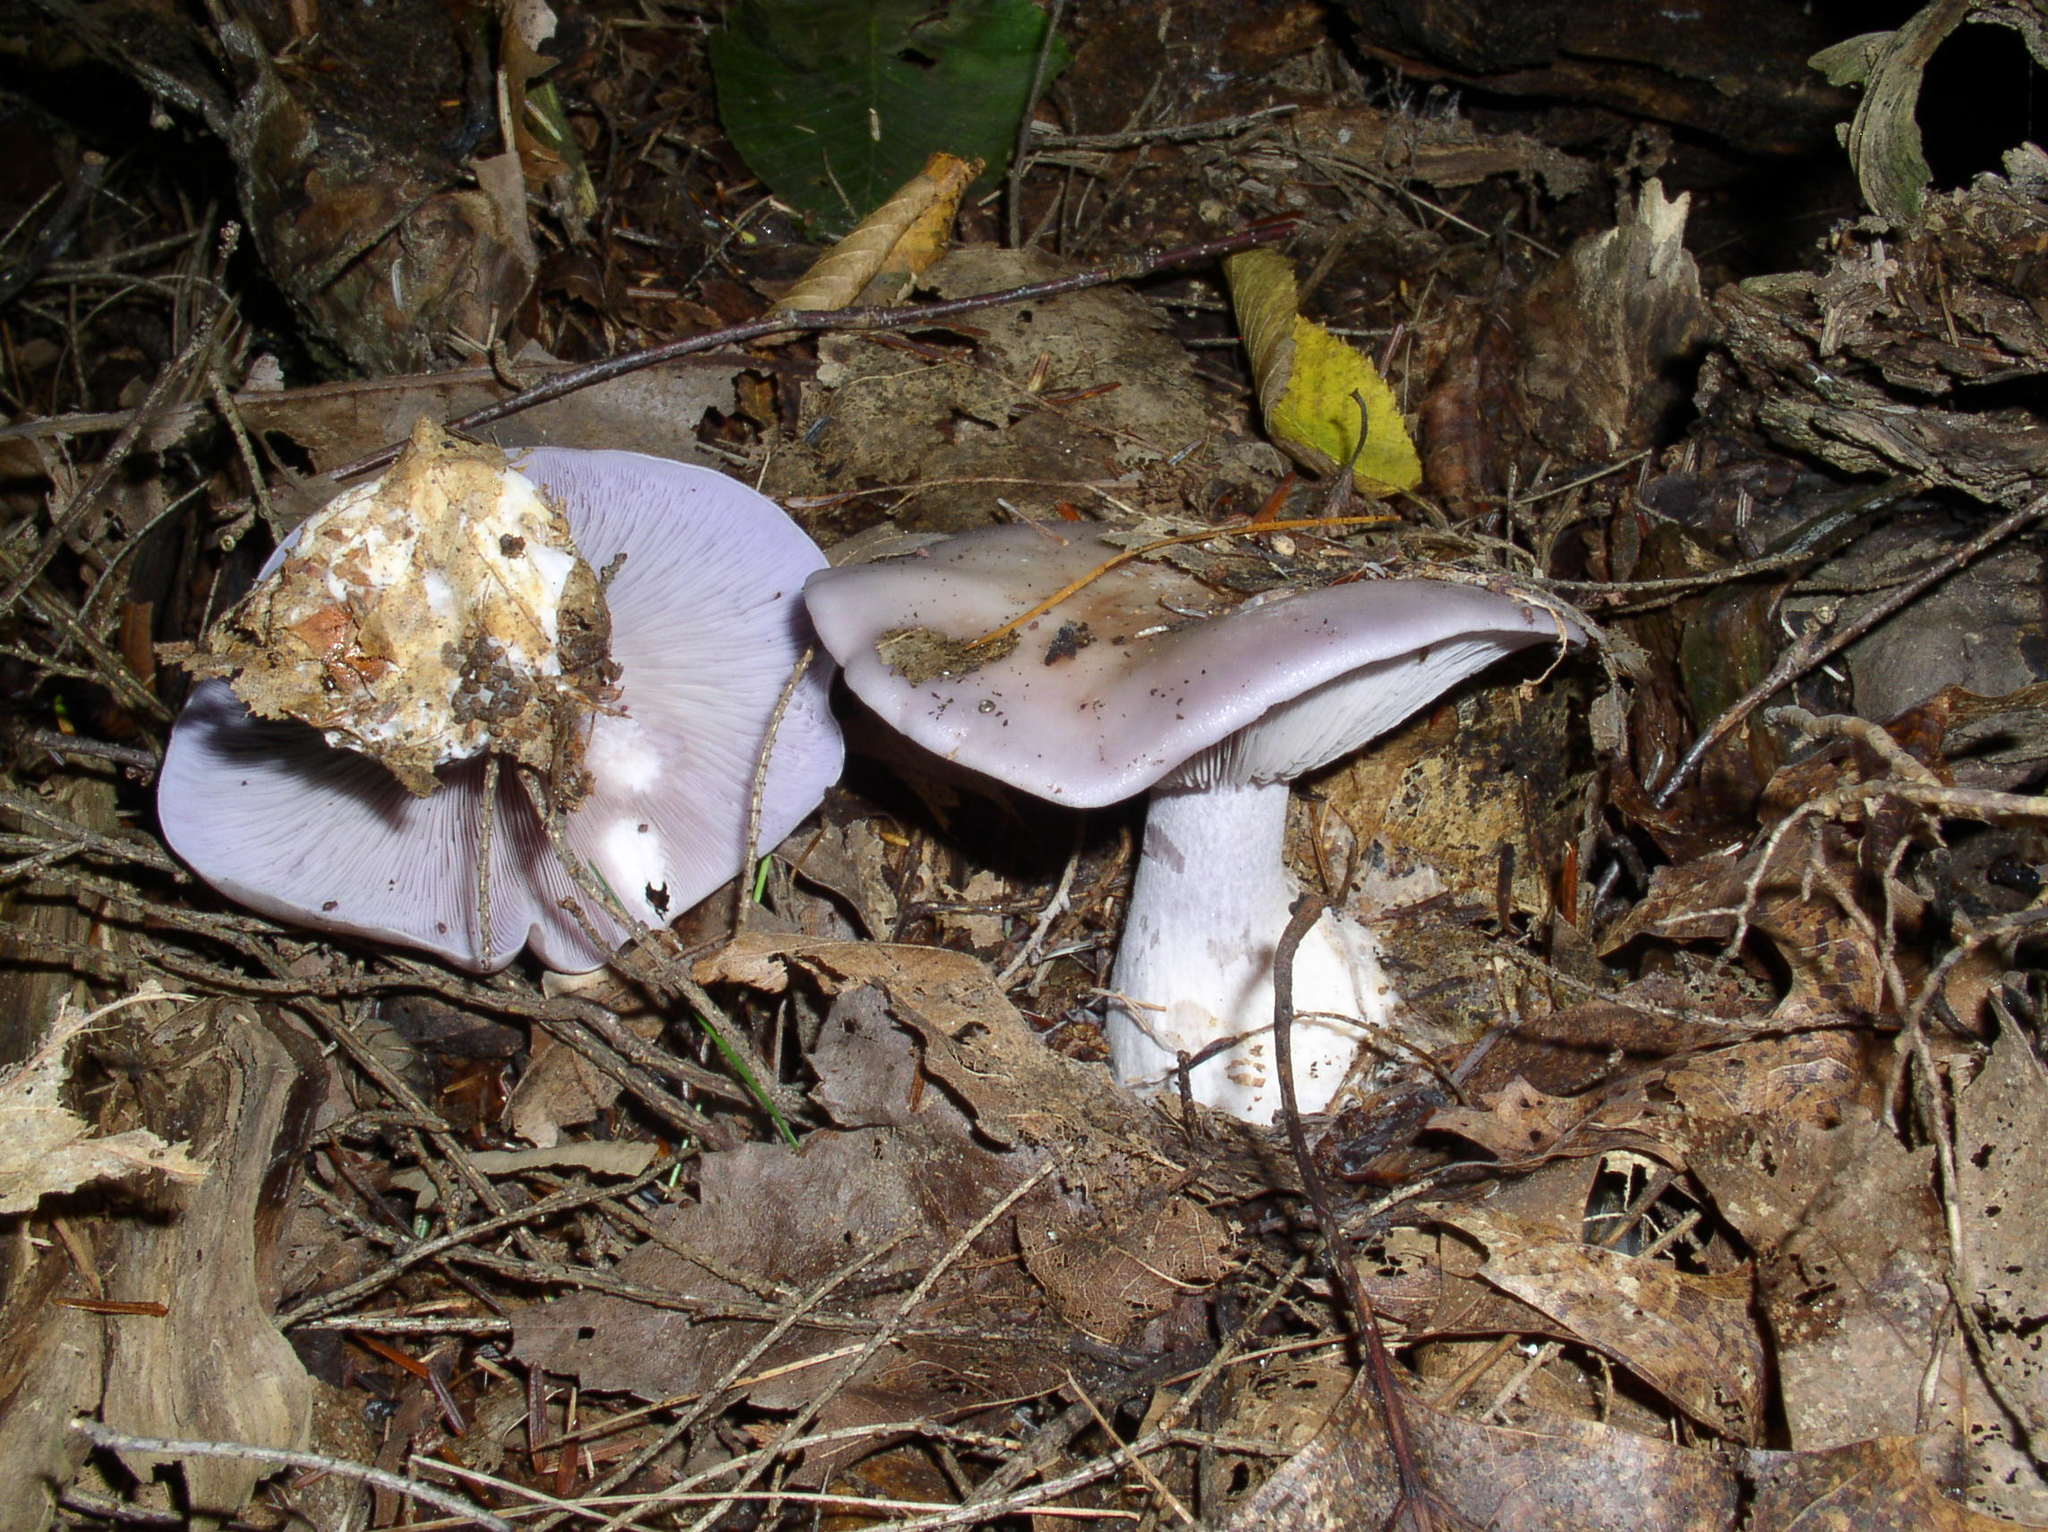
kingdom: Fungi
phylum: Basidiomycota
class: Agaricomycetes
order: Agaricales
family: Tricholomataceae
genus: Collybia
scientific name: Collybia
